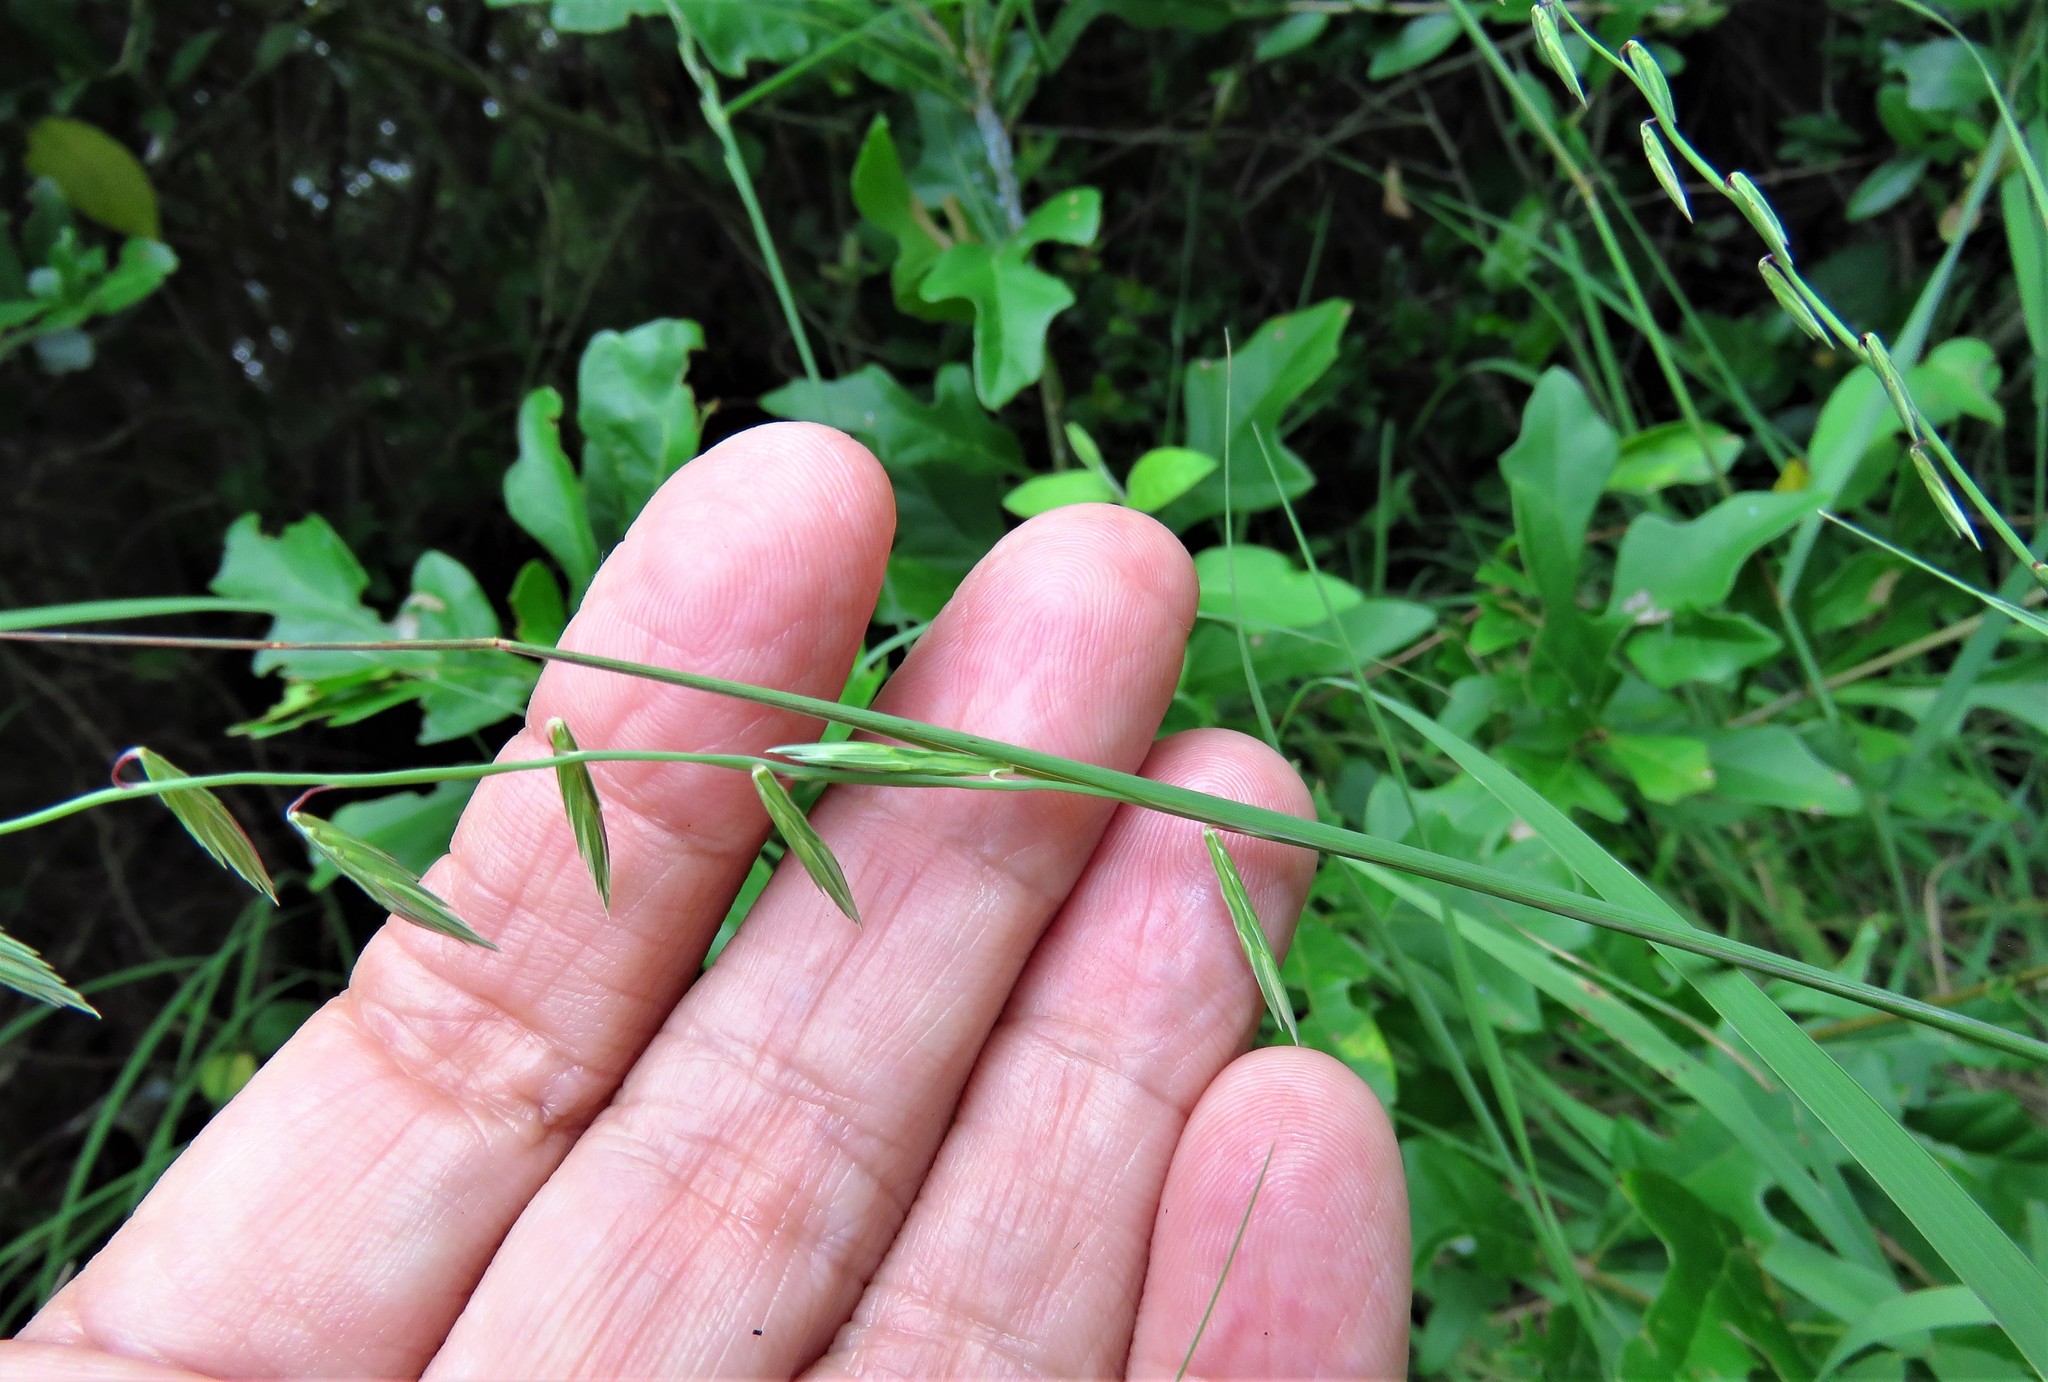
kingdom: Plantae
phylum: Tracheophyta
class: Liliopsida
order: Poales
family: Poaceae
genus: Bouteloua
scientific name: Bouteloua curtipendula
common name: Side-oats grama
